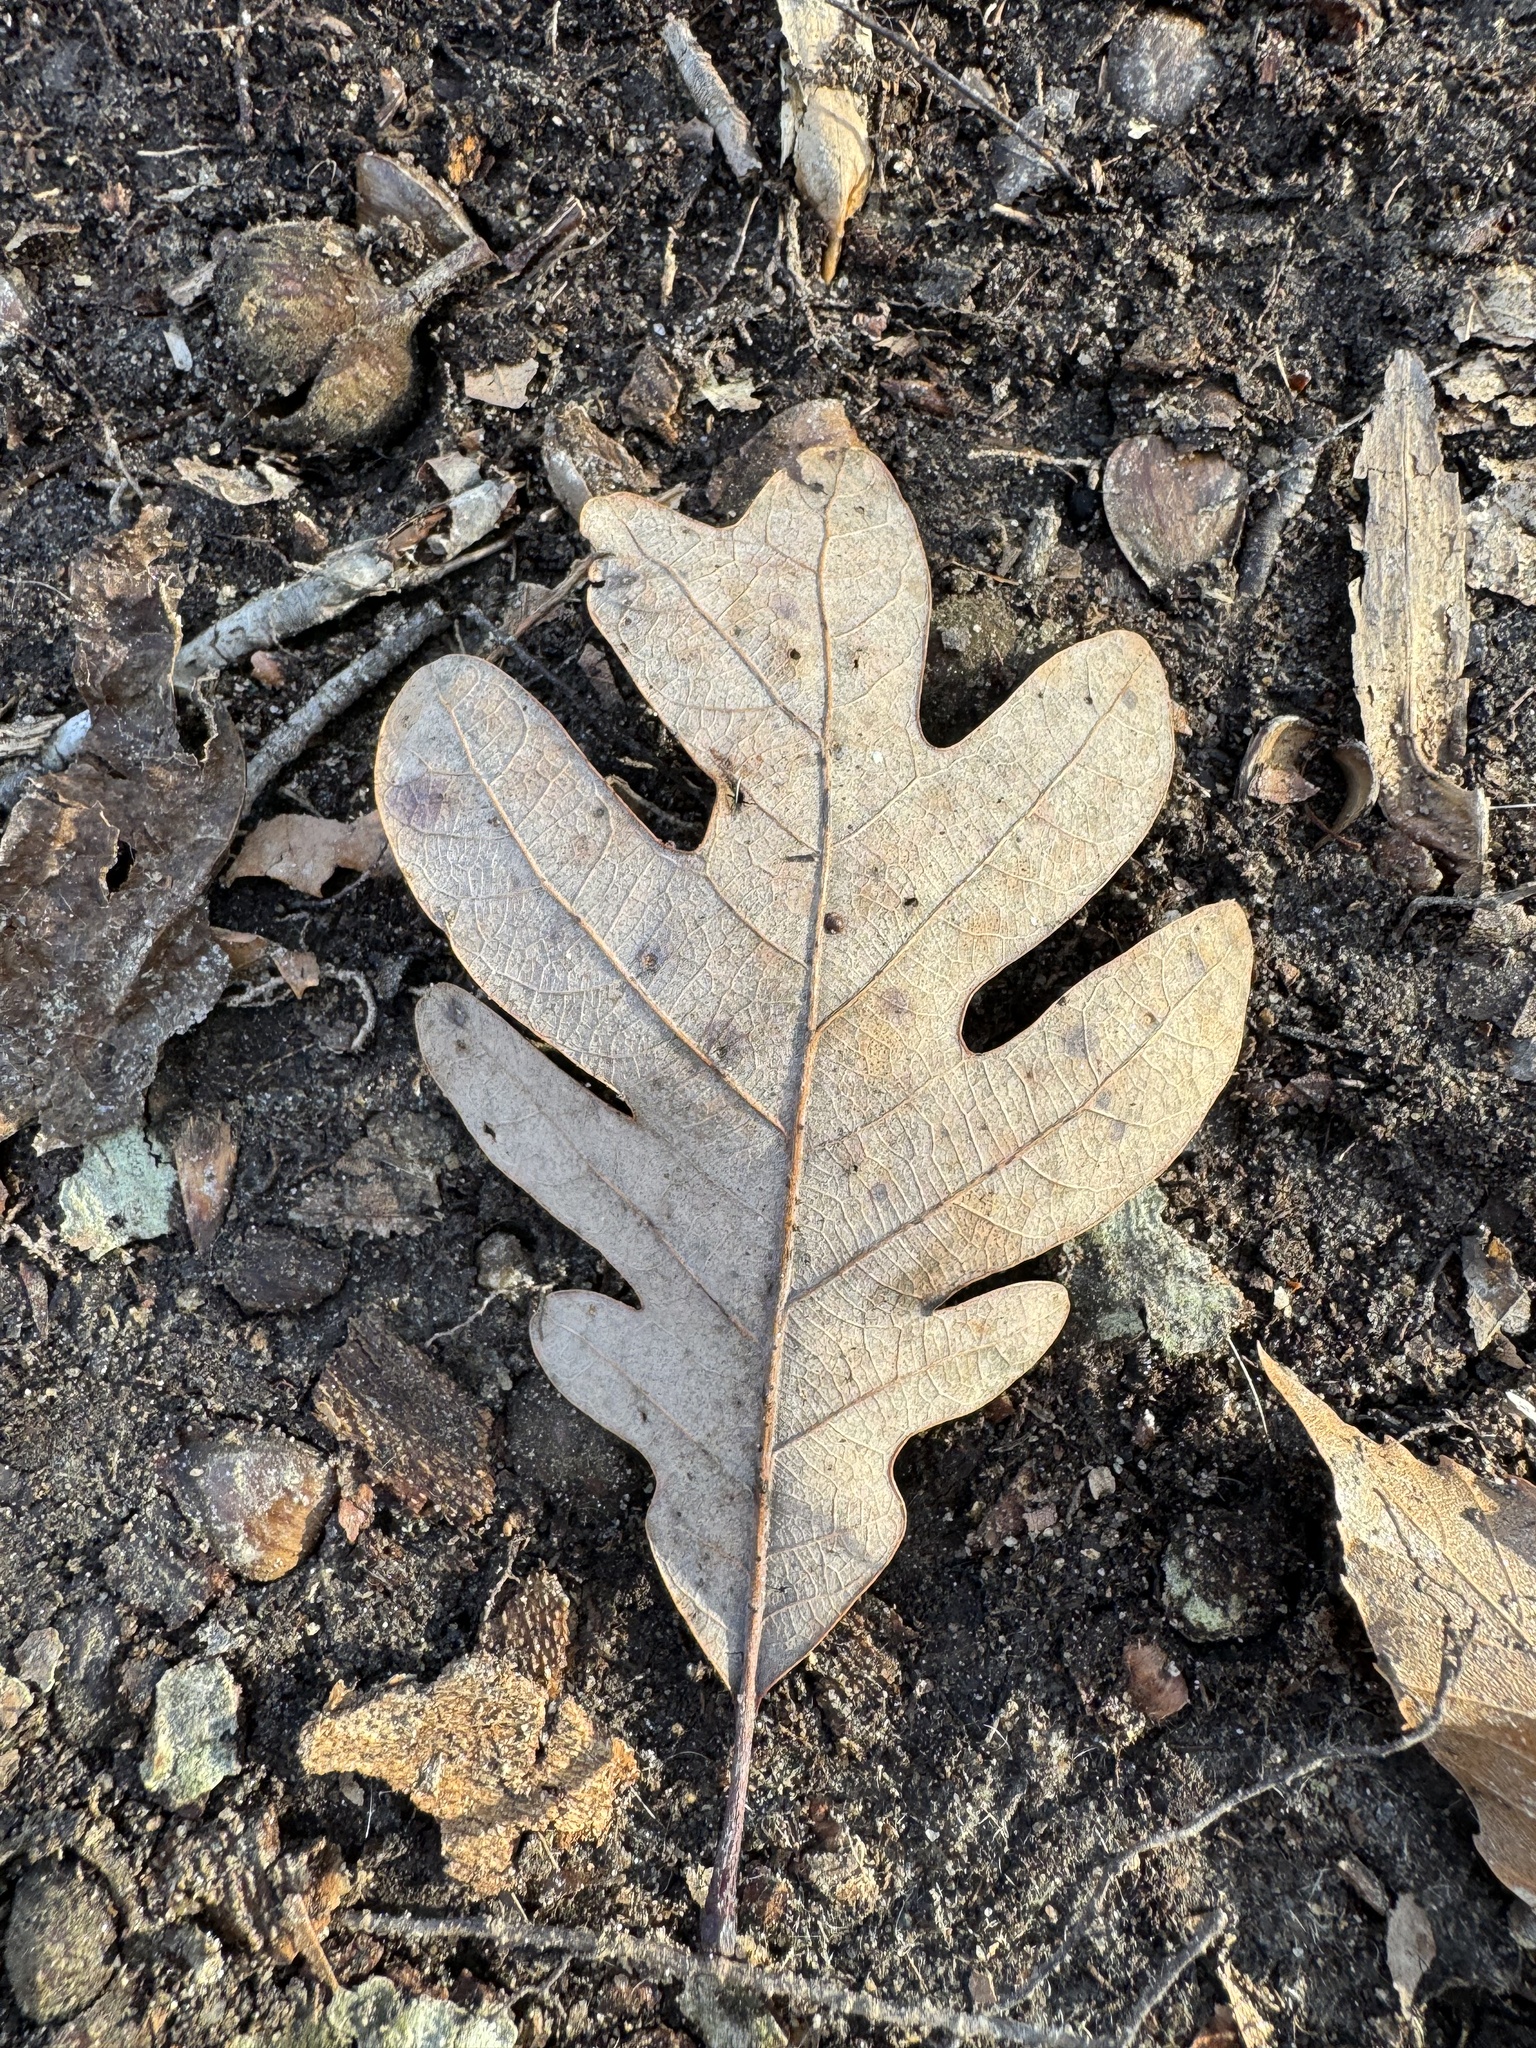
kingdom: Plantae
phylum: Tracheophyta
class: Magnoliopsida
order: Fagales
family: Fagaceae
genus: Quercus
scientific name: Quercus alba
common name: White oak
